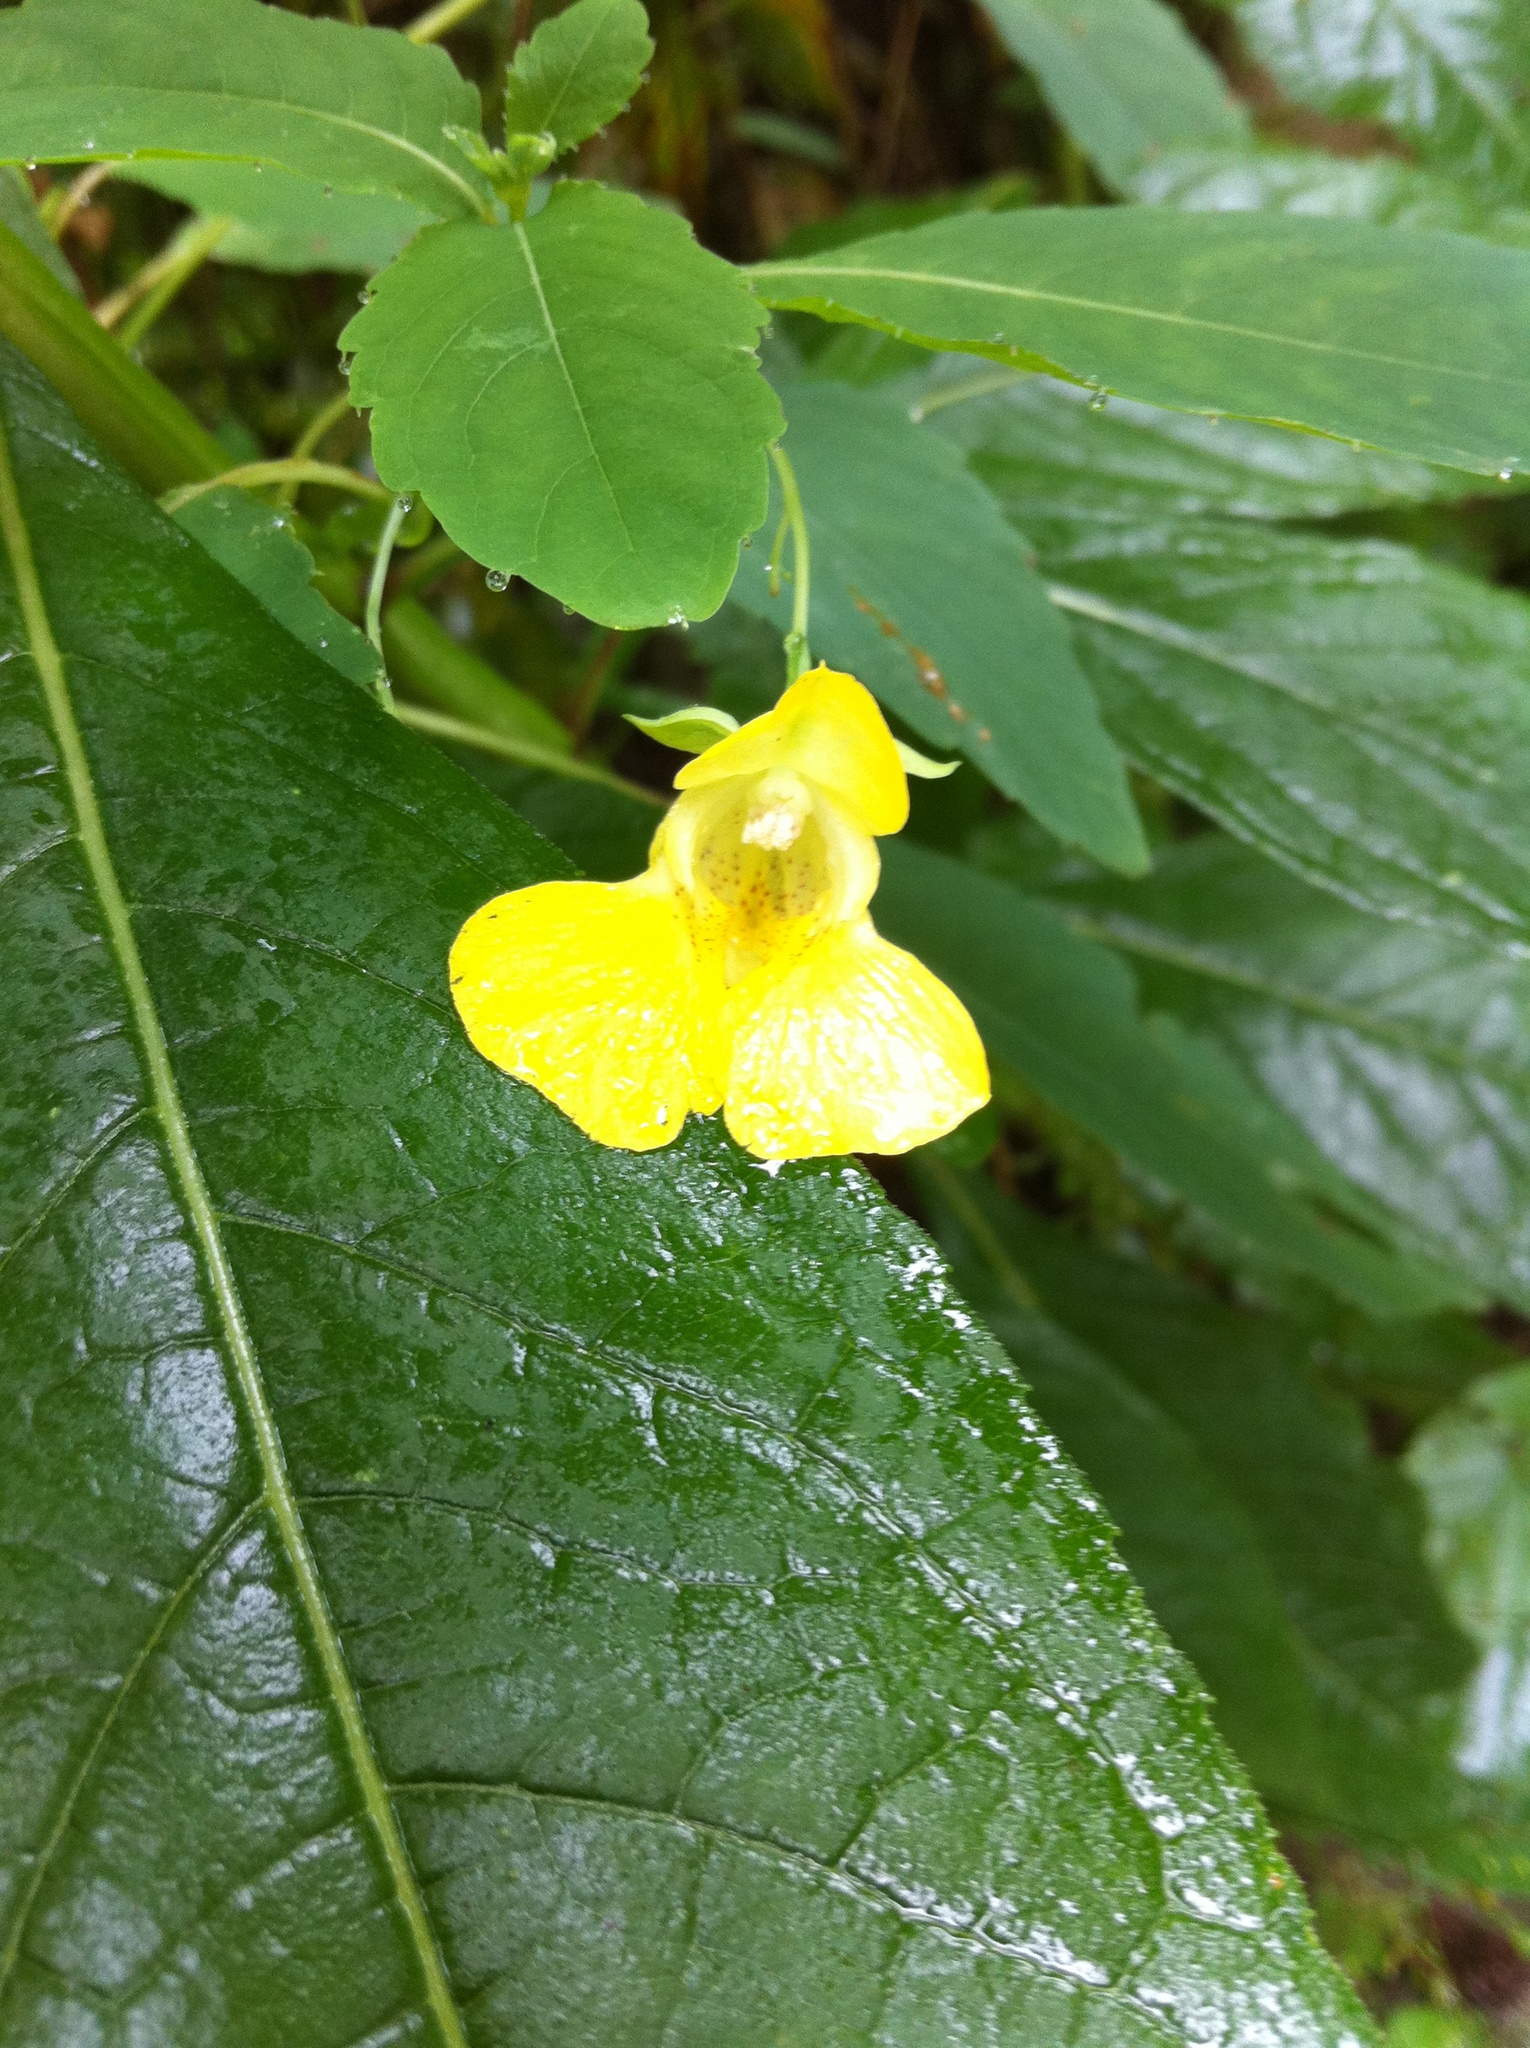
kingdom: Plantae
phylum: Tracheophyta
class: Magnoliopsida
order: Ericales
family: Balsaminaceae
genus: Impatiens
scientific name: Impatiens pallida
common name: Pale snapweed
